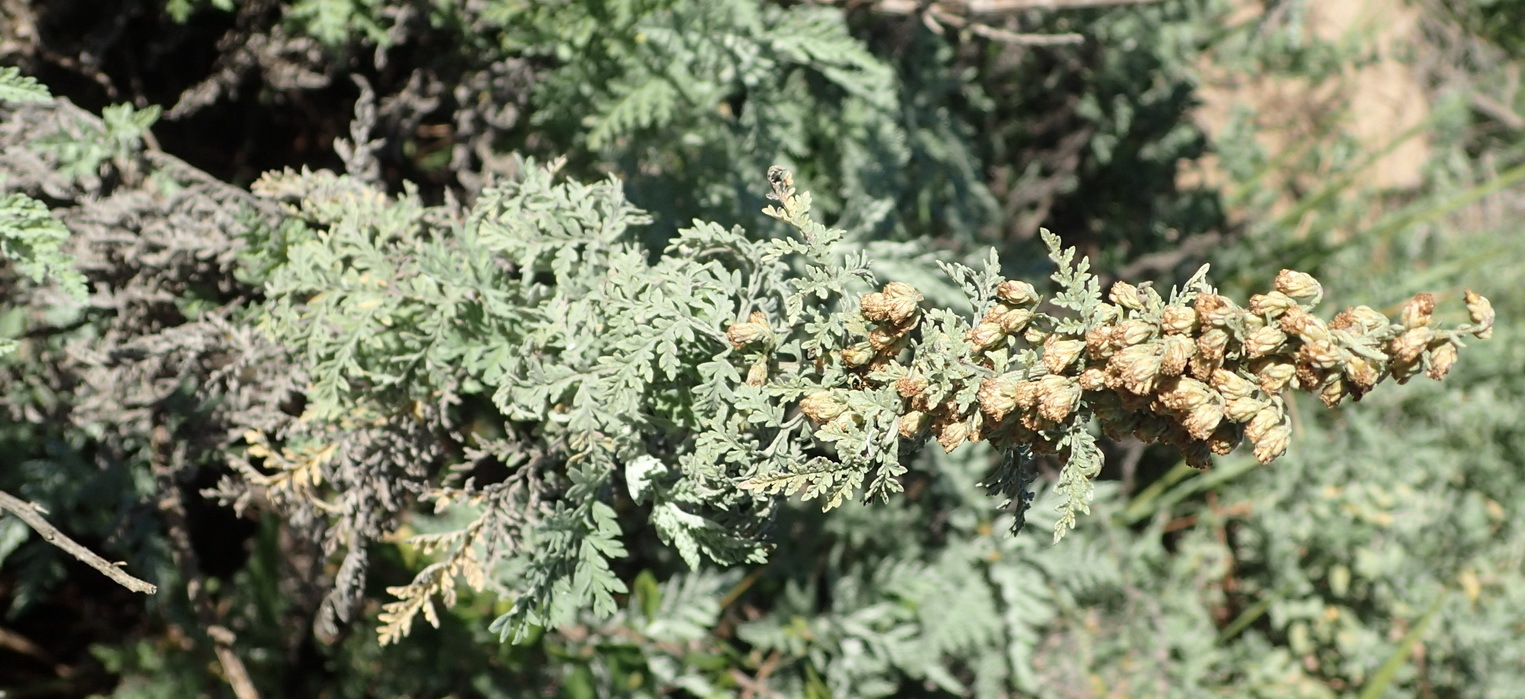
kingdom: Plantae
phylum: Tracheophyta
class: Magnoliopsida
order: Asterales
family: Asteraceae
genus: Artemisia
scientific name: Artemisia afra
